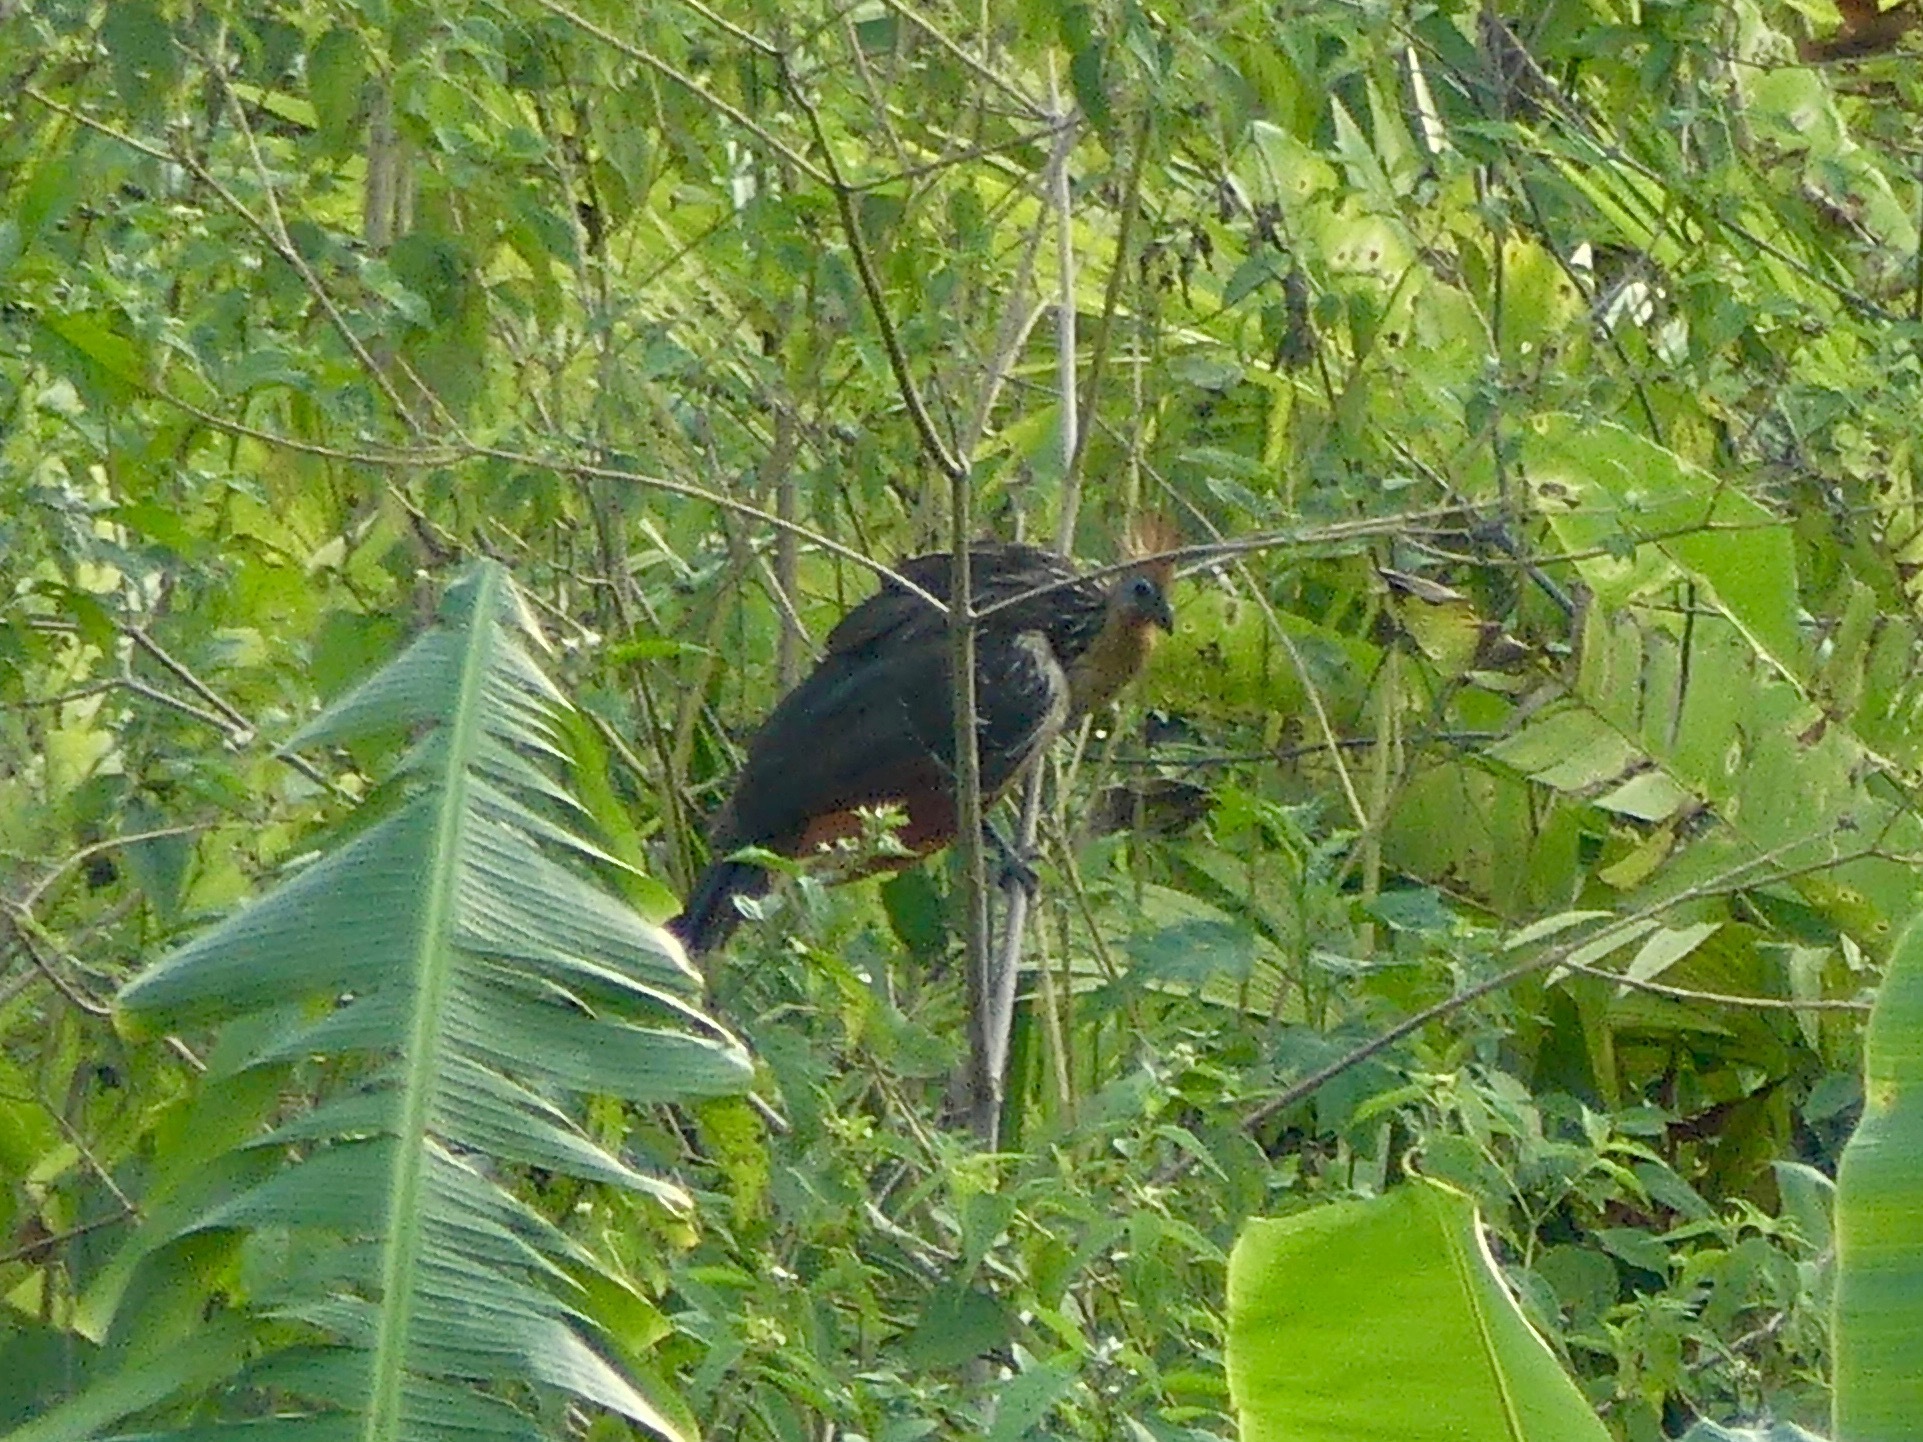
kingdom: Animalia
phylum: Chordata
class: Aves
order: Opisthocomiformes
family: Opisthocomidae
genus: Opisthocomus
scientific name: Opisthocomus hoazin
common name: Hoatzin
